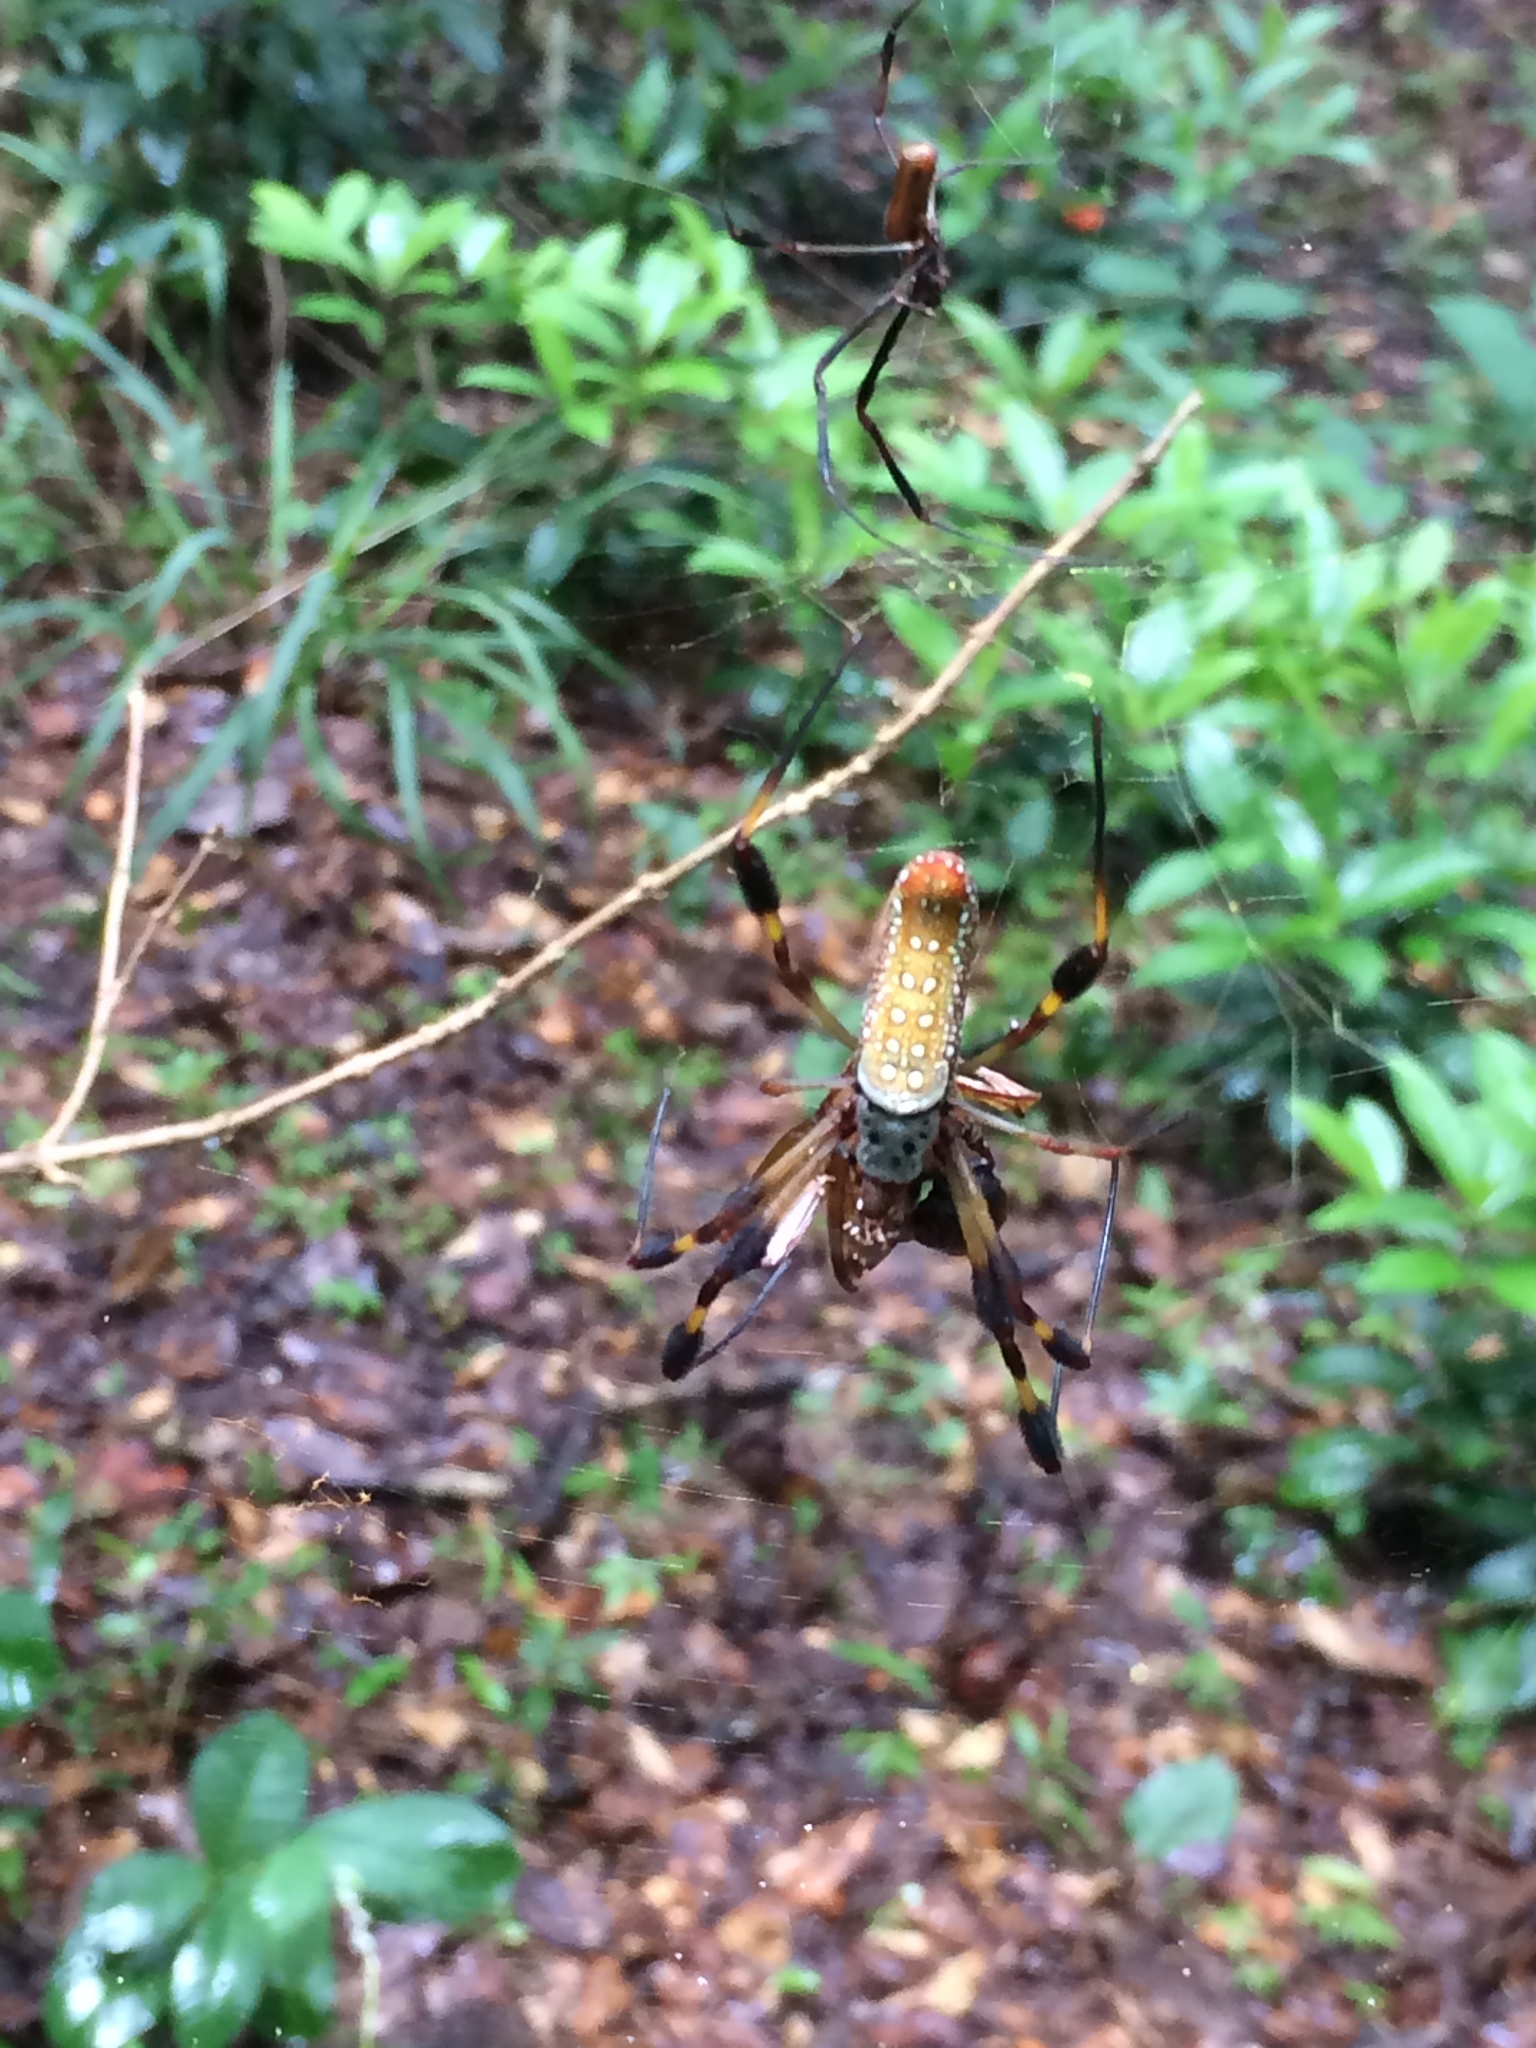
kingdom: Animalia
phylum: Arthropoda
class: Arachnida
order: Araneae
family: Araneidae
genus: Trichonephila
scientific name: Trichonephila clavipes
